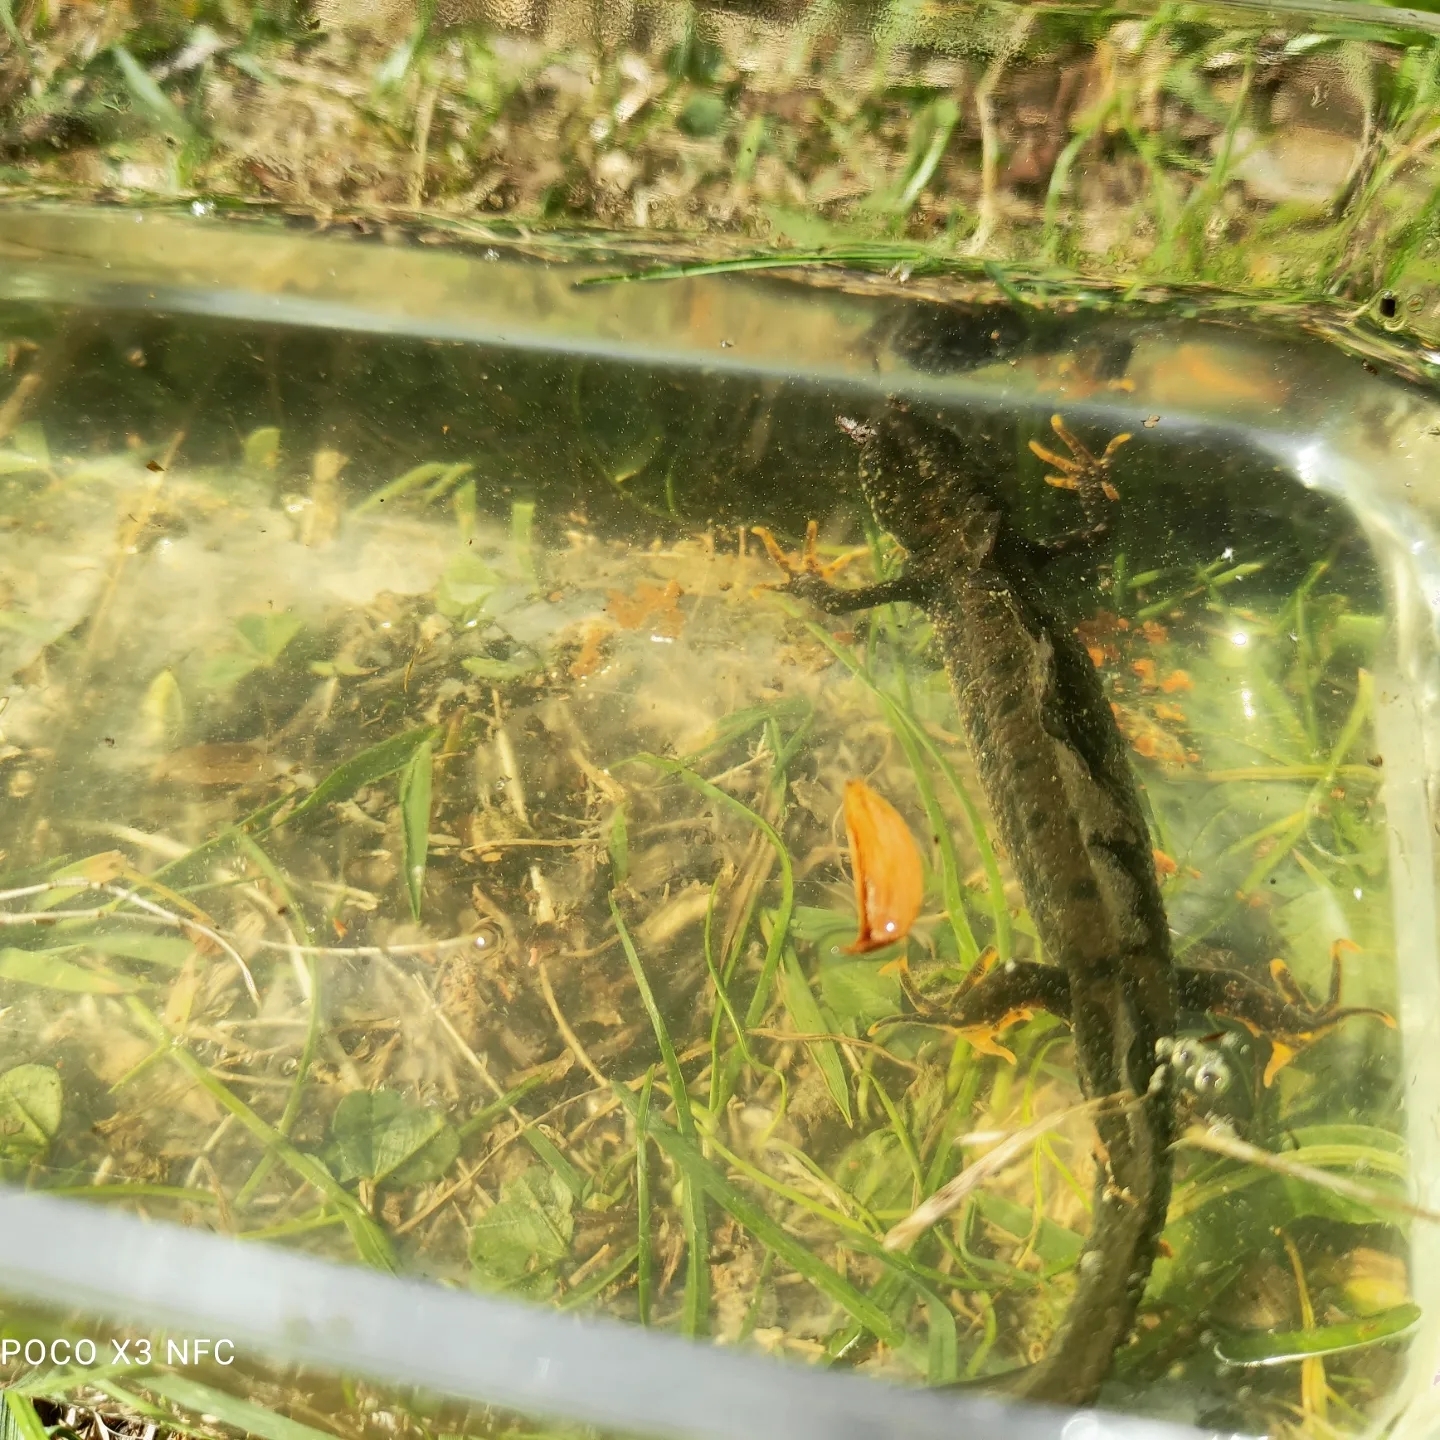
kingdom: Animalia
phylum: Chordata
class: Amphibia
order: Caudata
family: Salamandridae
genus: Triturus
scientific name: Triturus cristatus
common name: Crested newt
